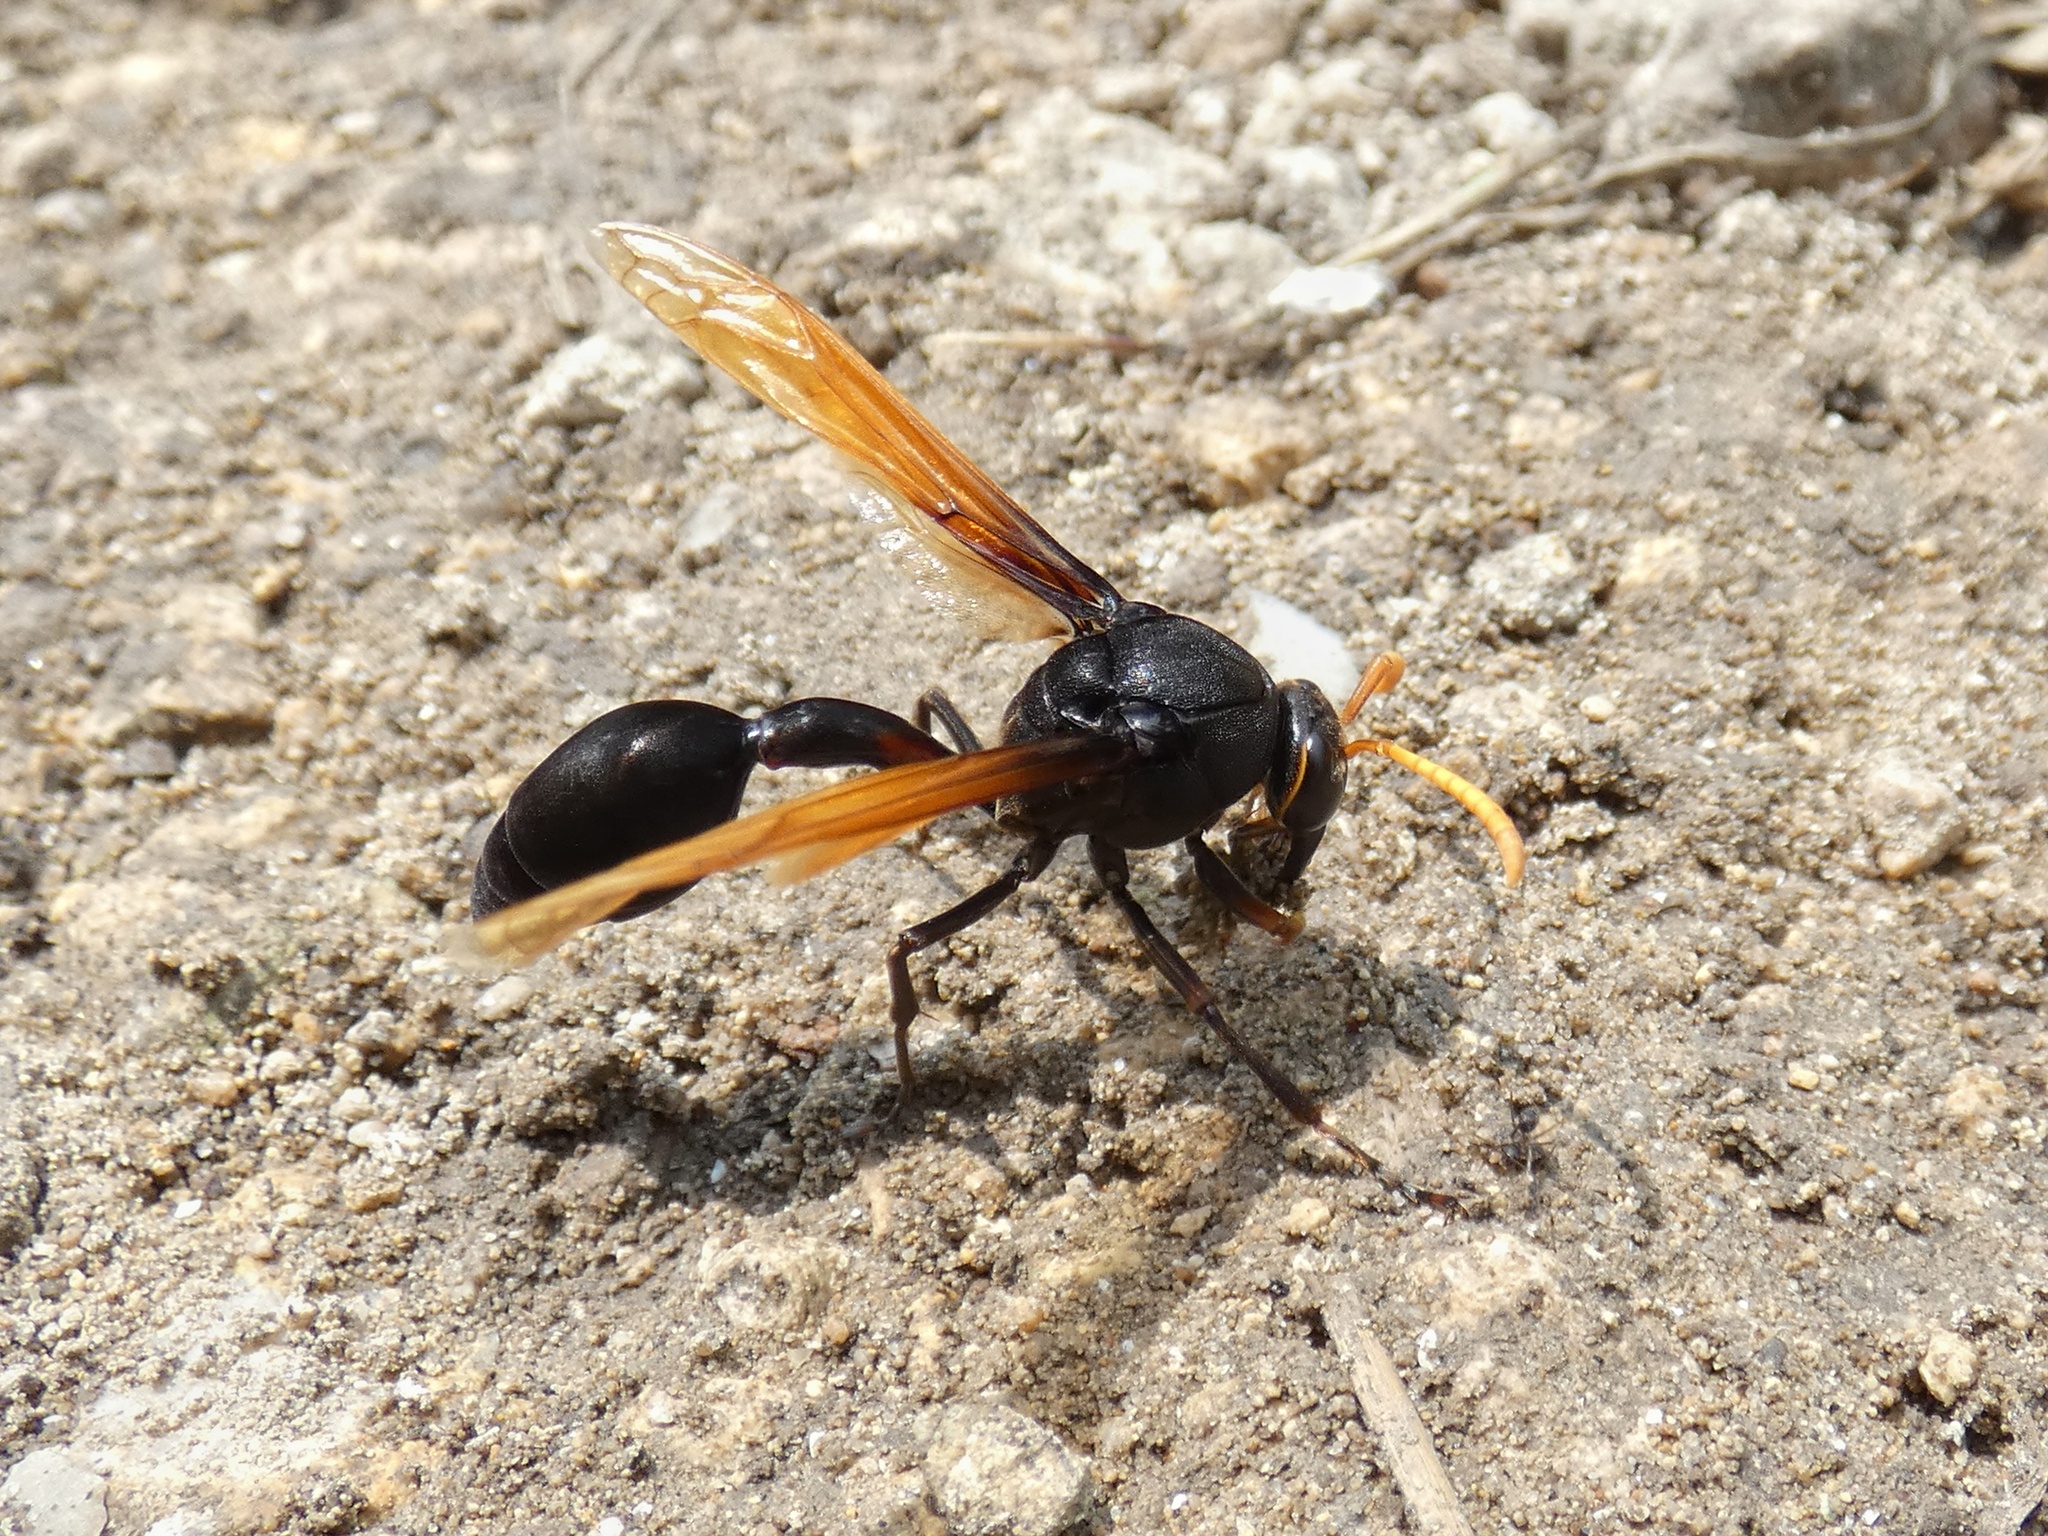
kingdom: Animalia
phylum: Arthropoda
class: Insecta
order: Hymenoptera
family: Eumenidae
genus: Delta
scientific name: Delta pyriforme
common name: Wasp
